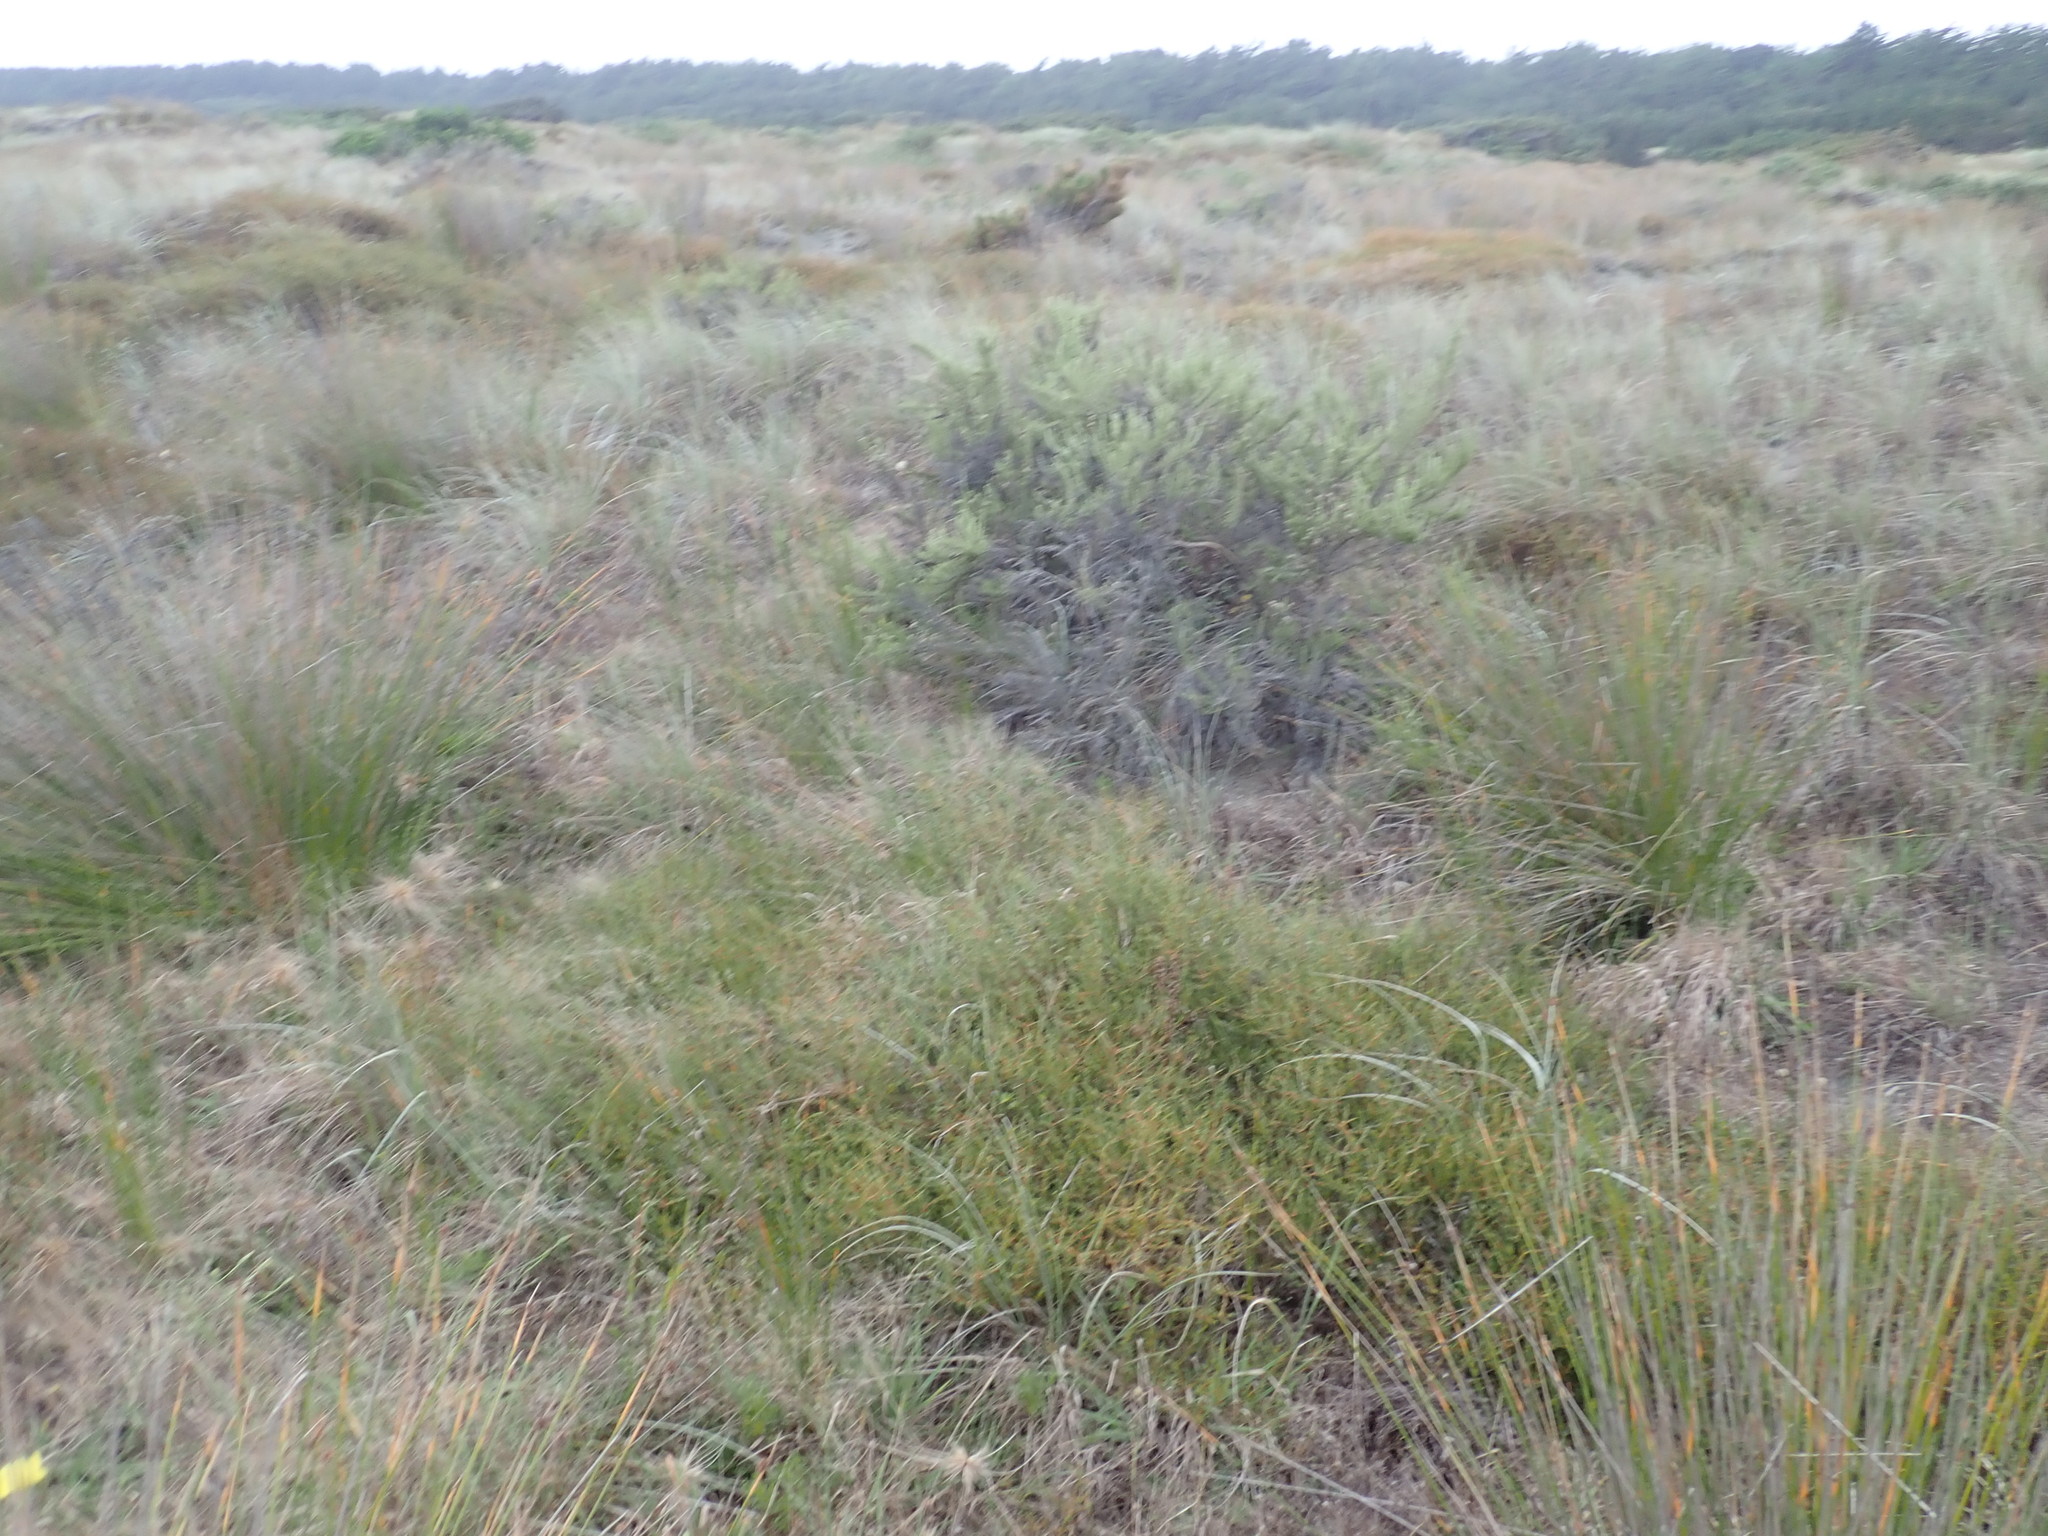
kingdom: Plantae
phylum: Tracheophyta
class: Magnoliopsida
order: Gentianales
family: Rubiaceae
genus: Coprosma
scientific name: Coprosma acerosa
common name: Sand coprosma
